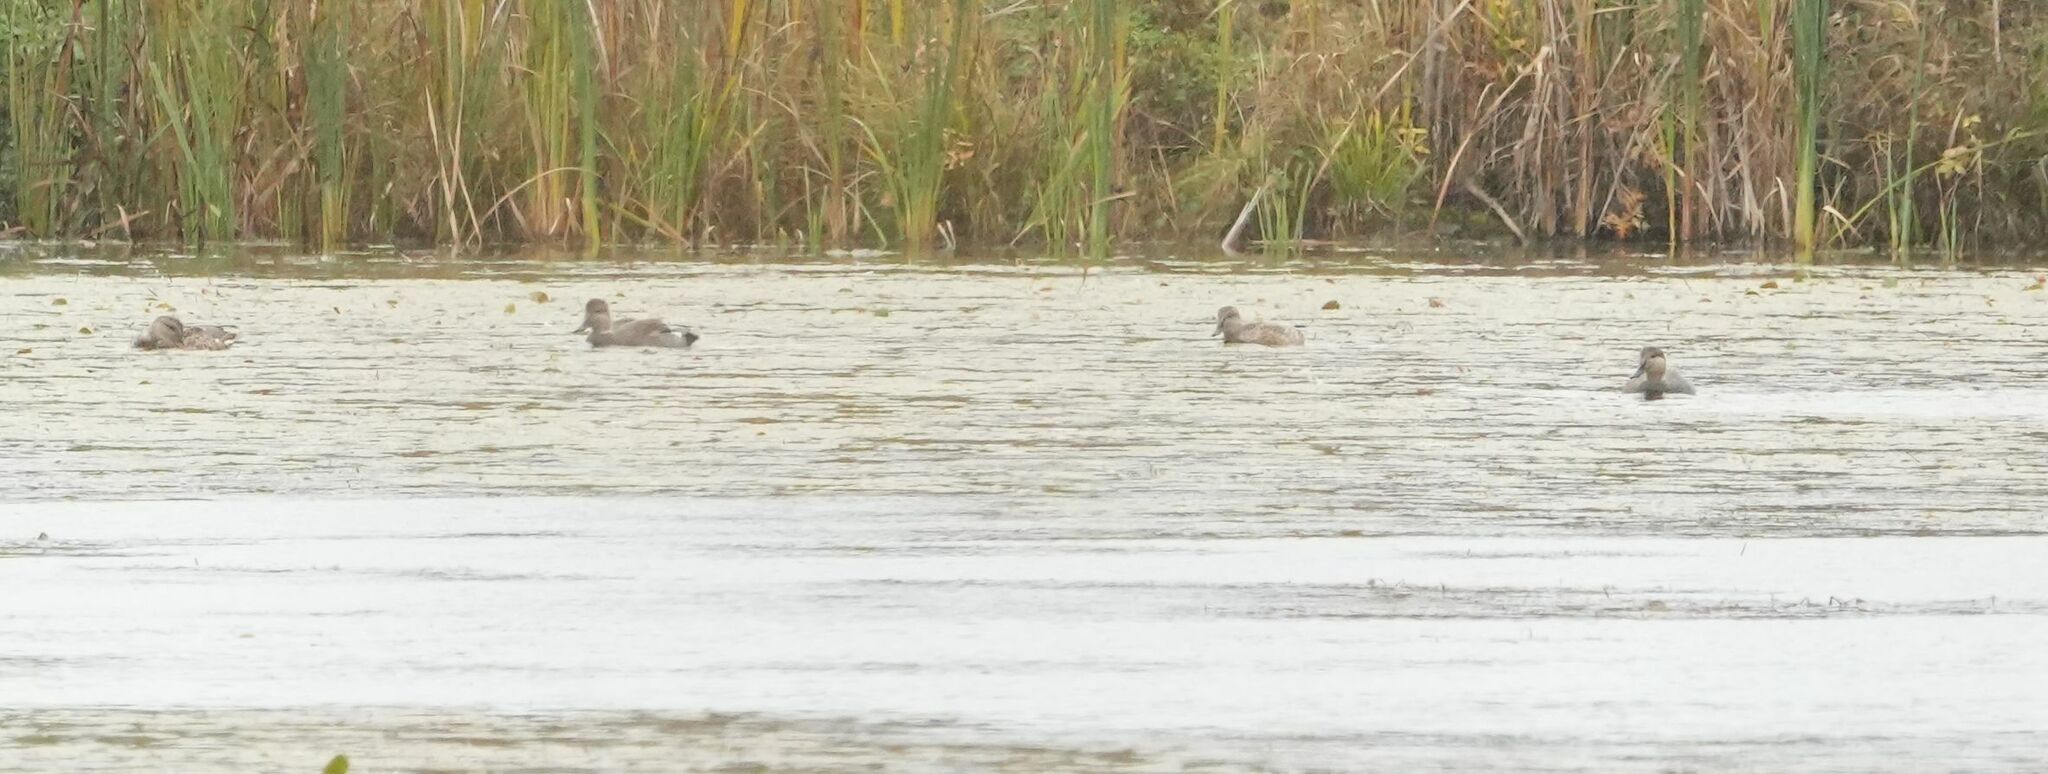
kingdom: Animalia
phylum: Chordata
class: Aves
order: Anseriformes
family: Anatidae
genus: Mareca
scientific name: Mareca strepera
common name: Gadwall
